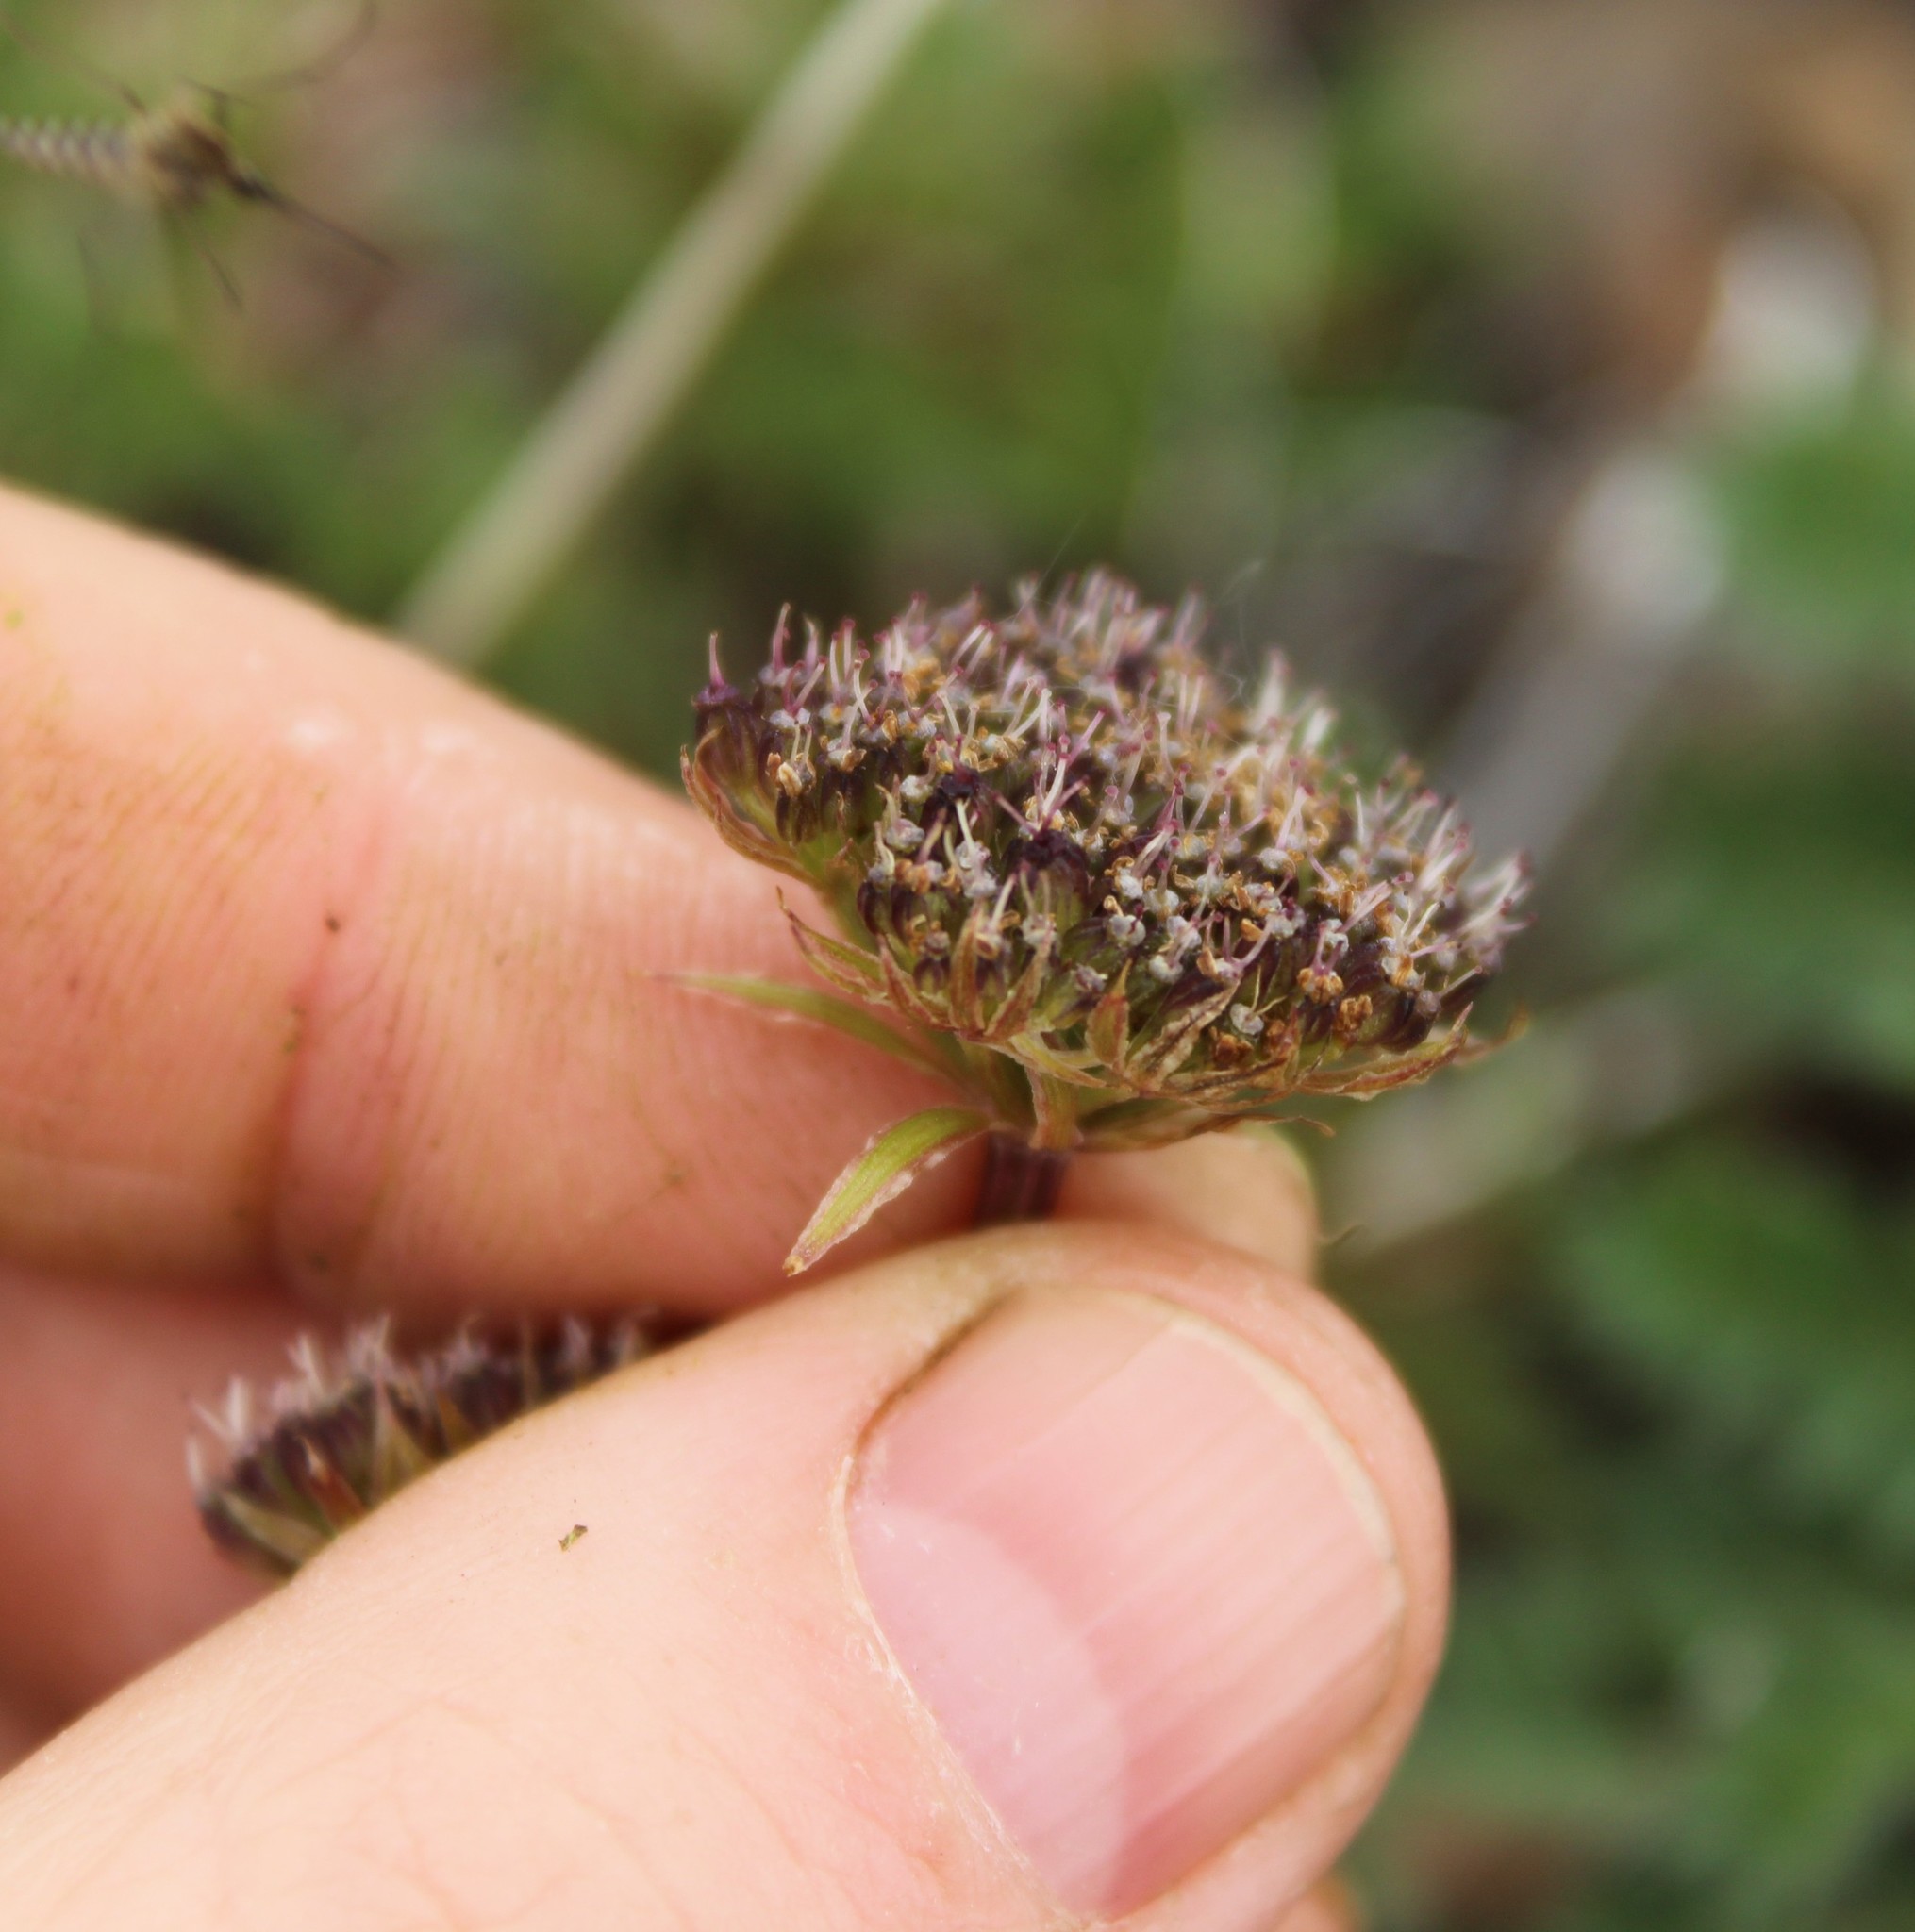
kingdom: Plantae
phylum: Tracheophyta
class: Magnoliopsida
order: Apiales
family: Apiaceae
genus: Pachypleurum
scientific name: Pachypleurum mutellinoides
